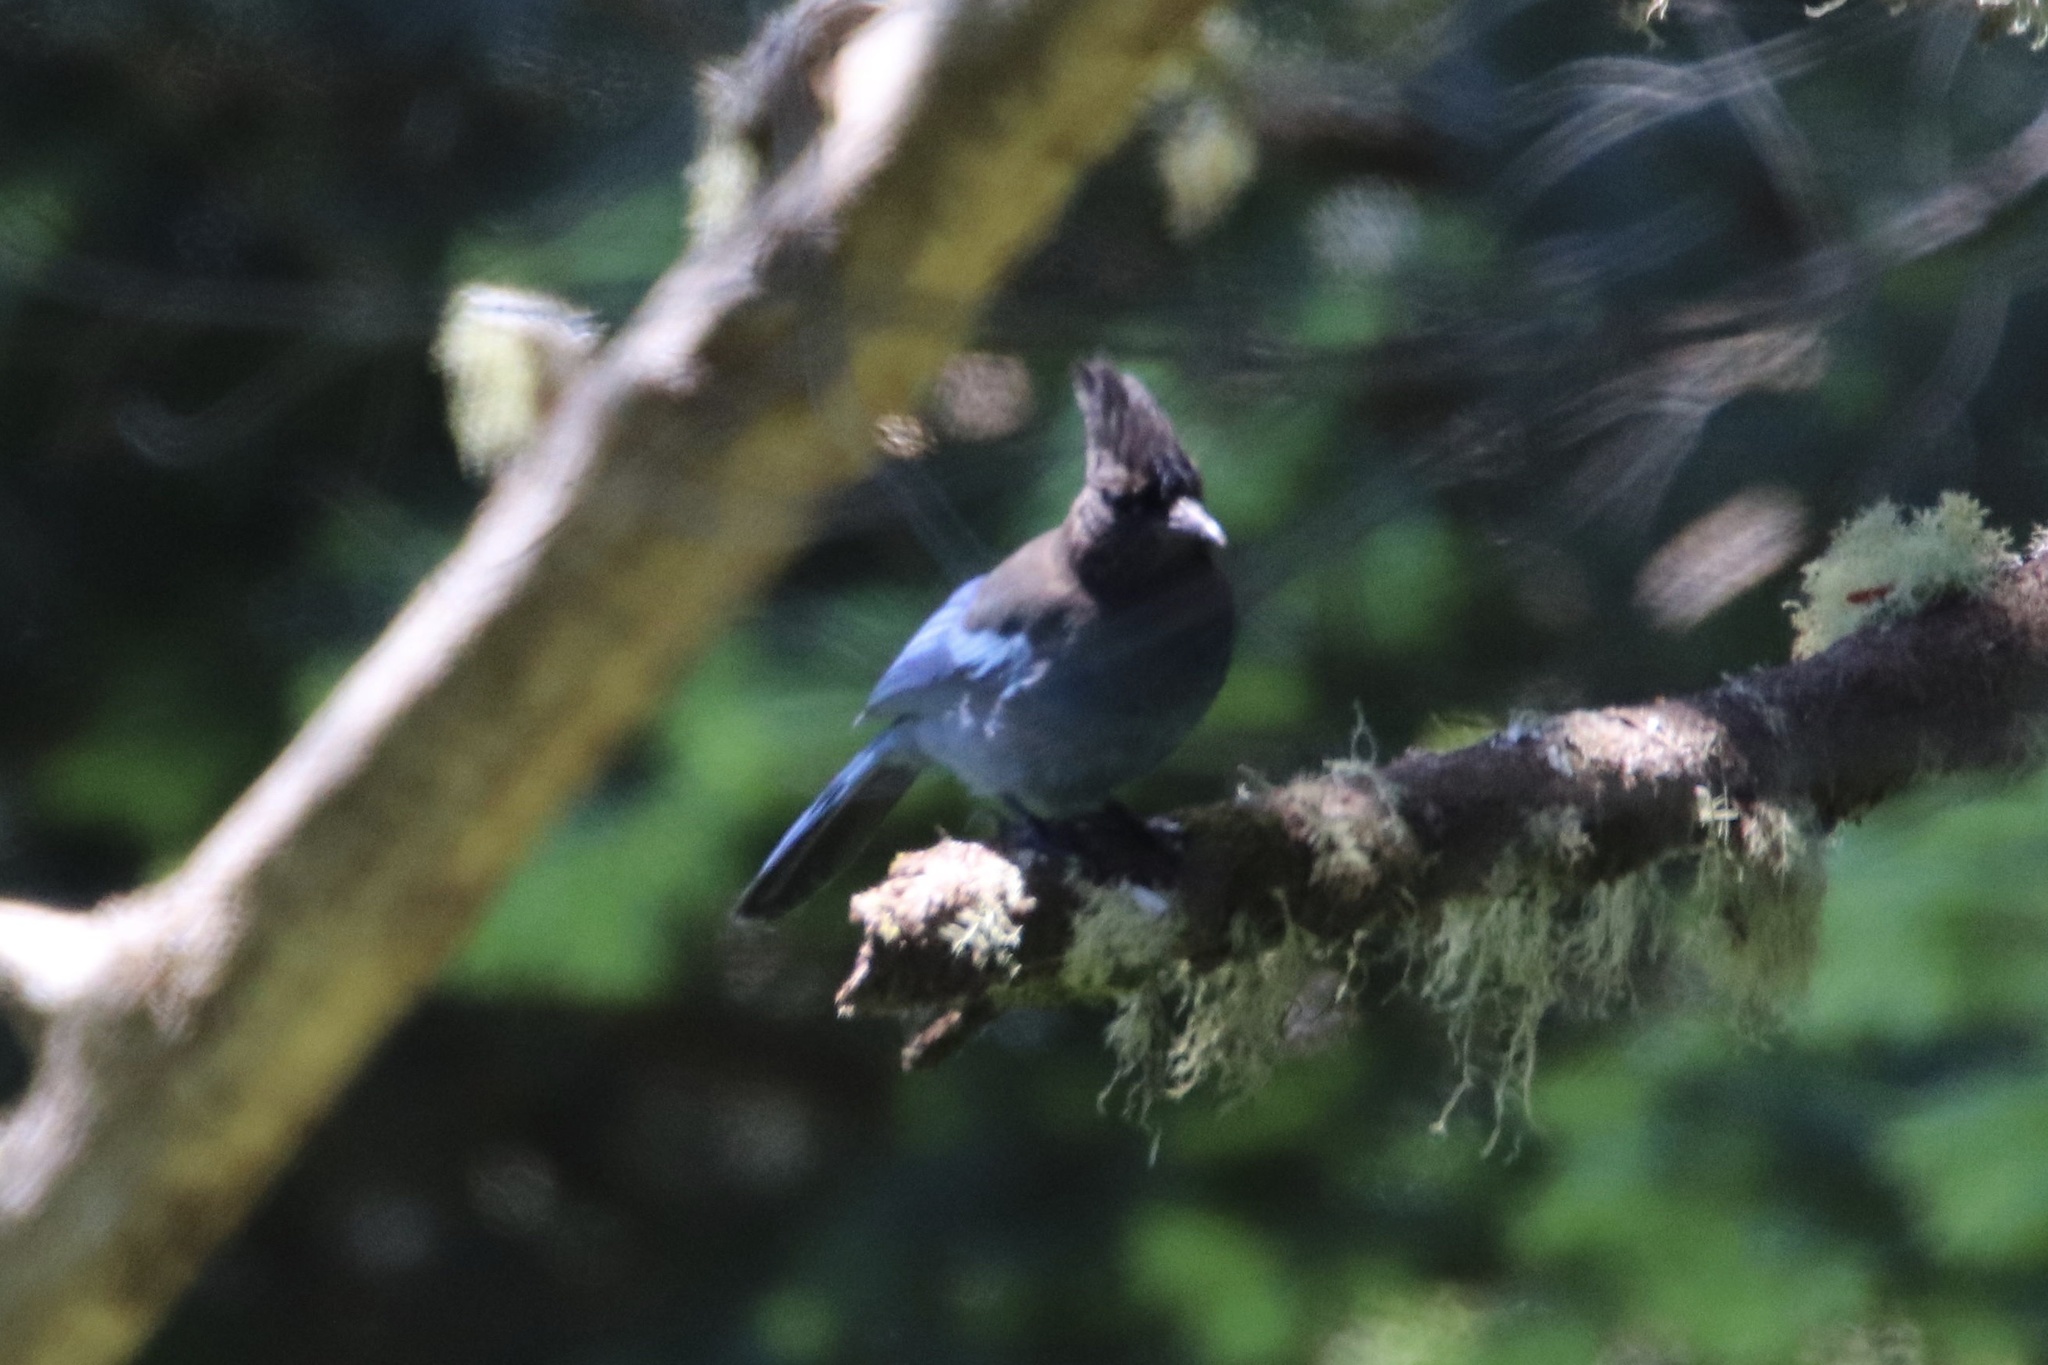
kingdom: Animalia
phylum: Chordata
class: Aves
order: Passeriformes
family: Corvidae
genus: Cyanocitta
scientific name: Cyanocitta stelleri
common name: Steller's jay
